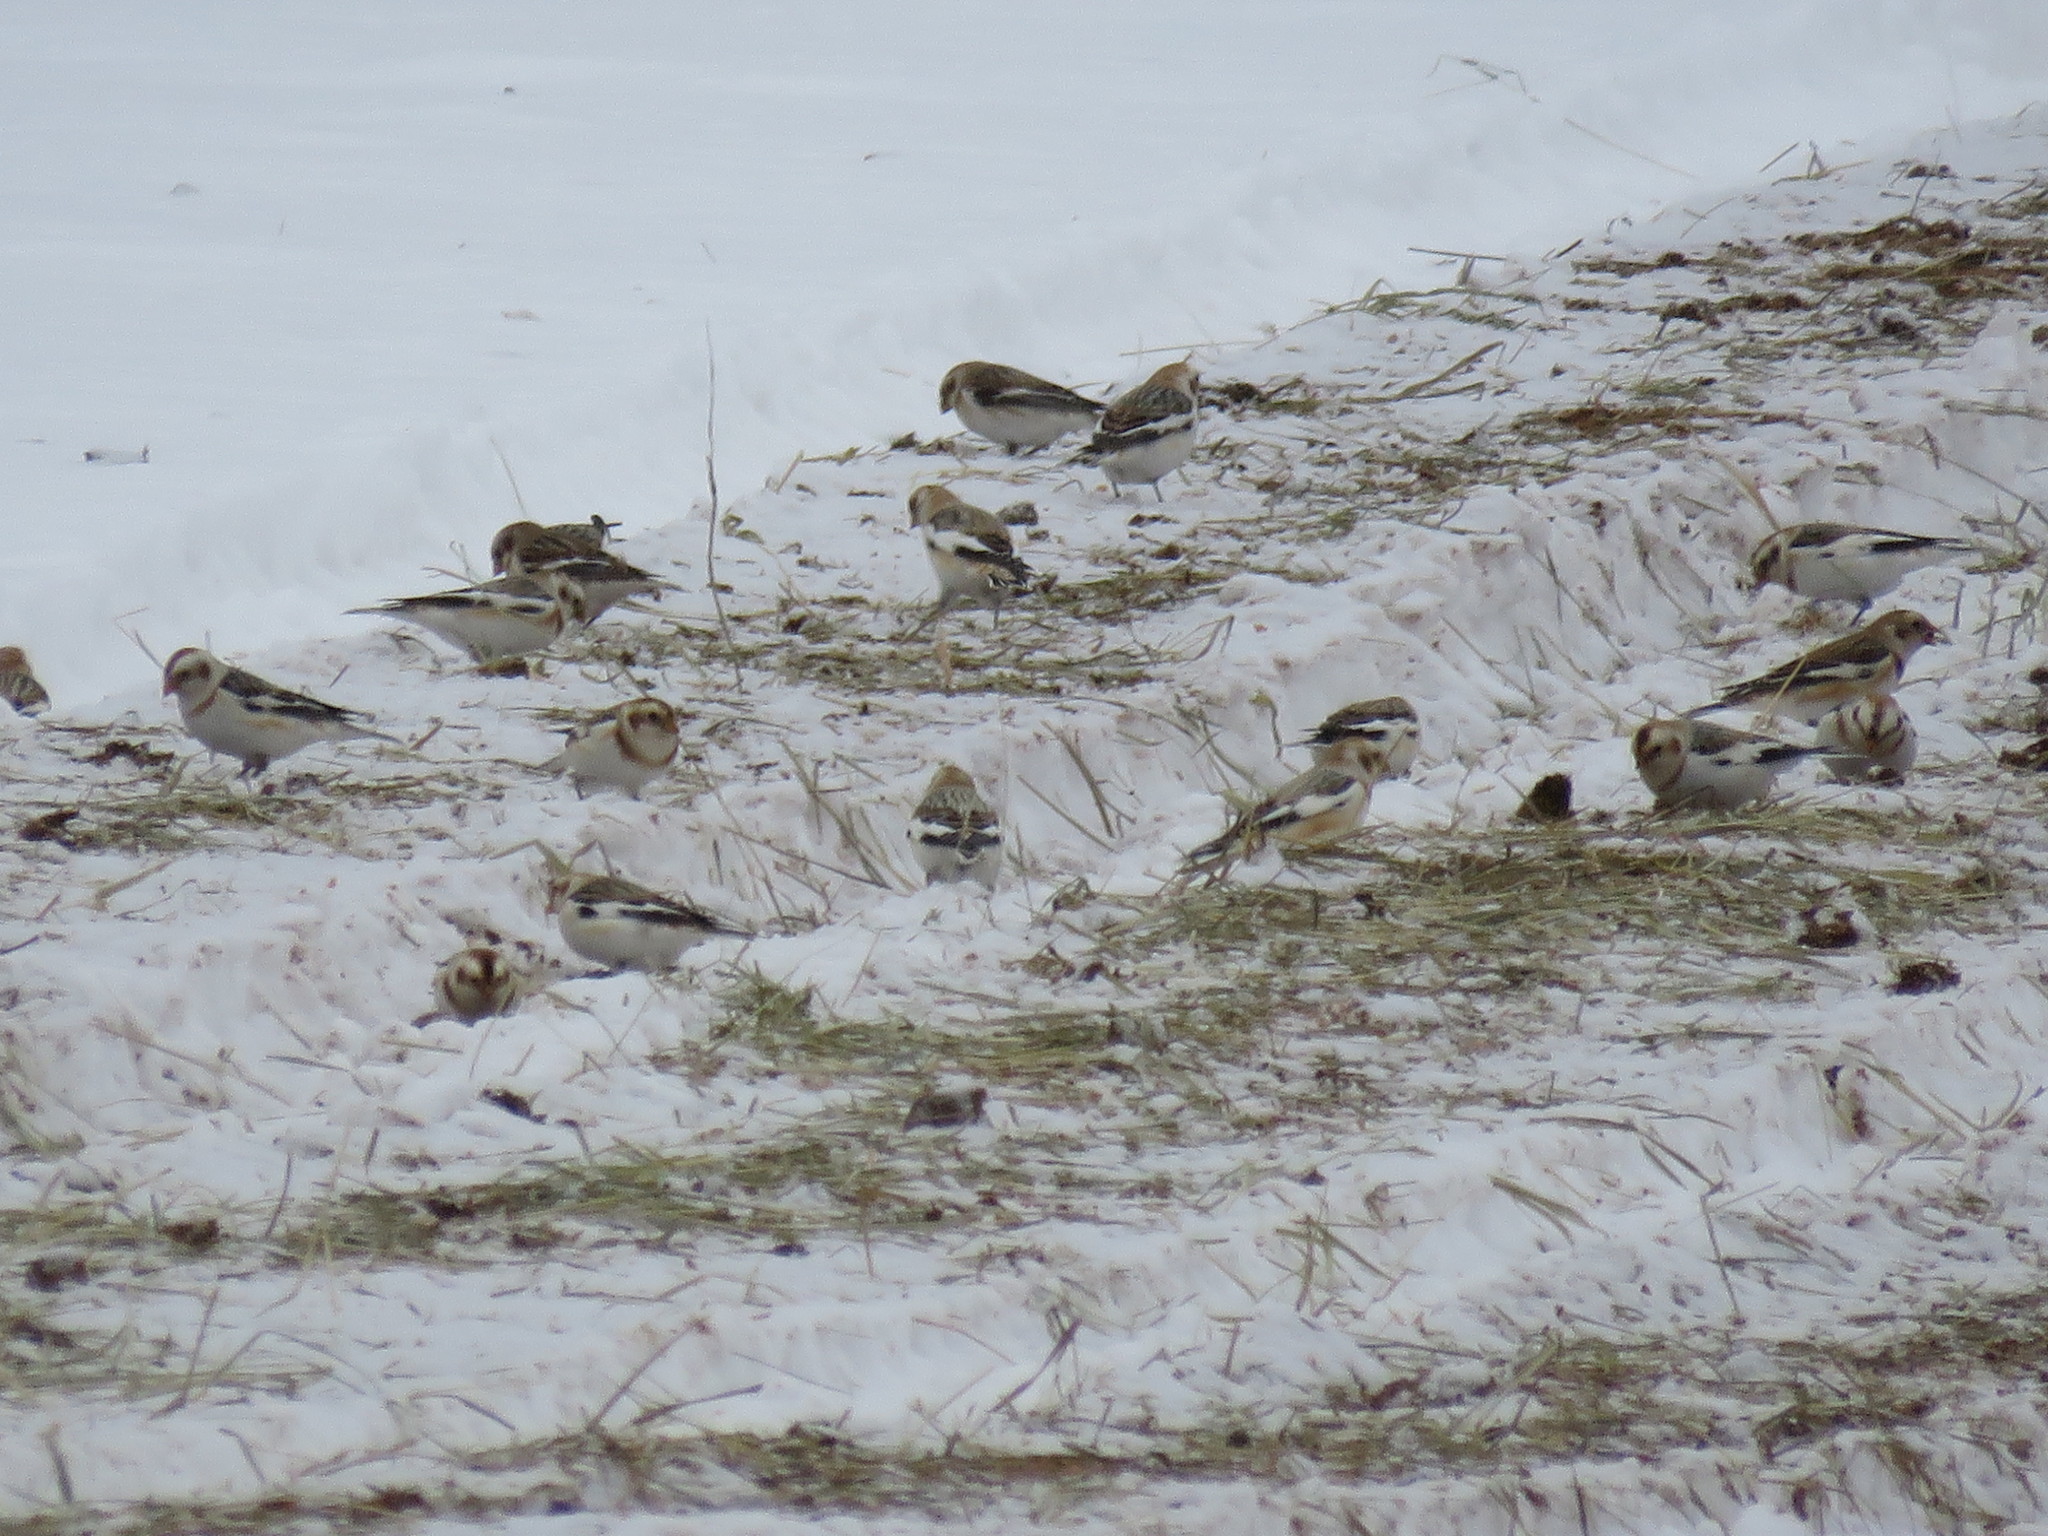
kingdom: Animalia
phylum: Chordata
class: Aves
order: Passeriformes
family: Calcariidae
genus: Plectrophenax
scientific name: Plectrophenax nivalis
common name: Snow bunting
